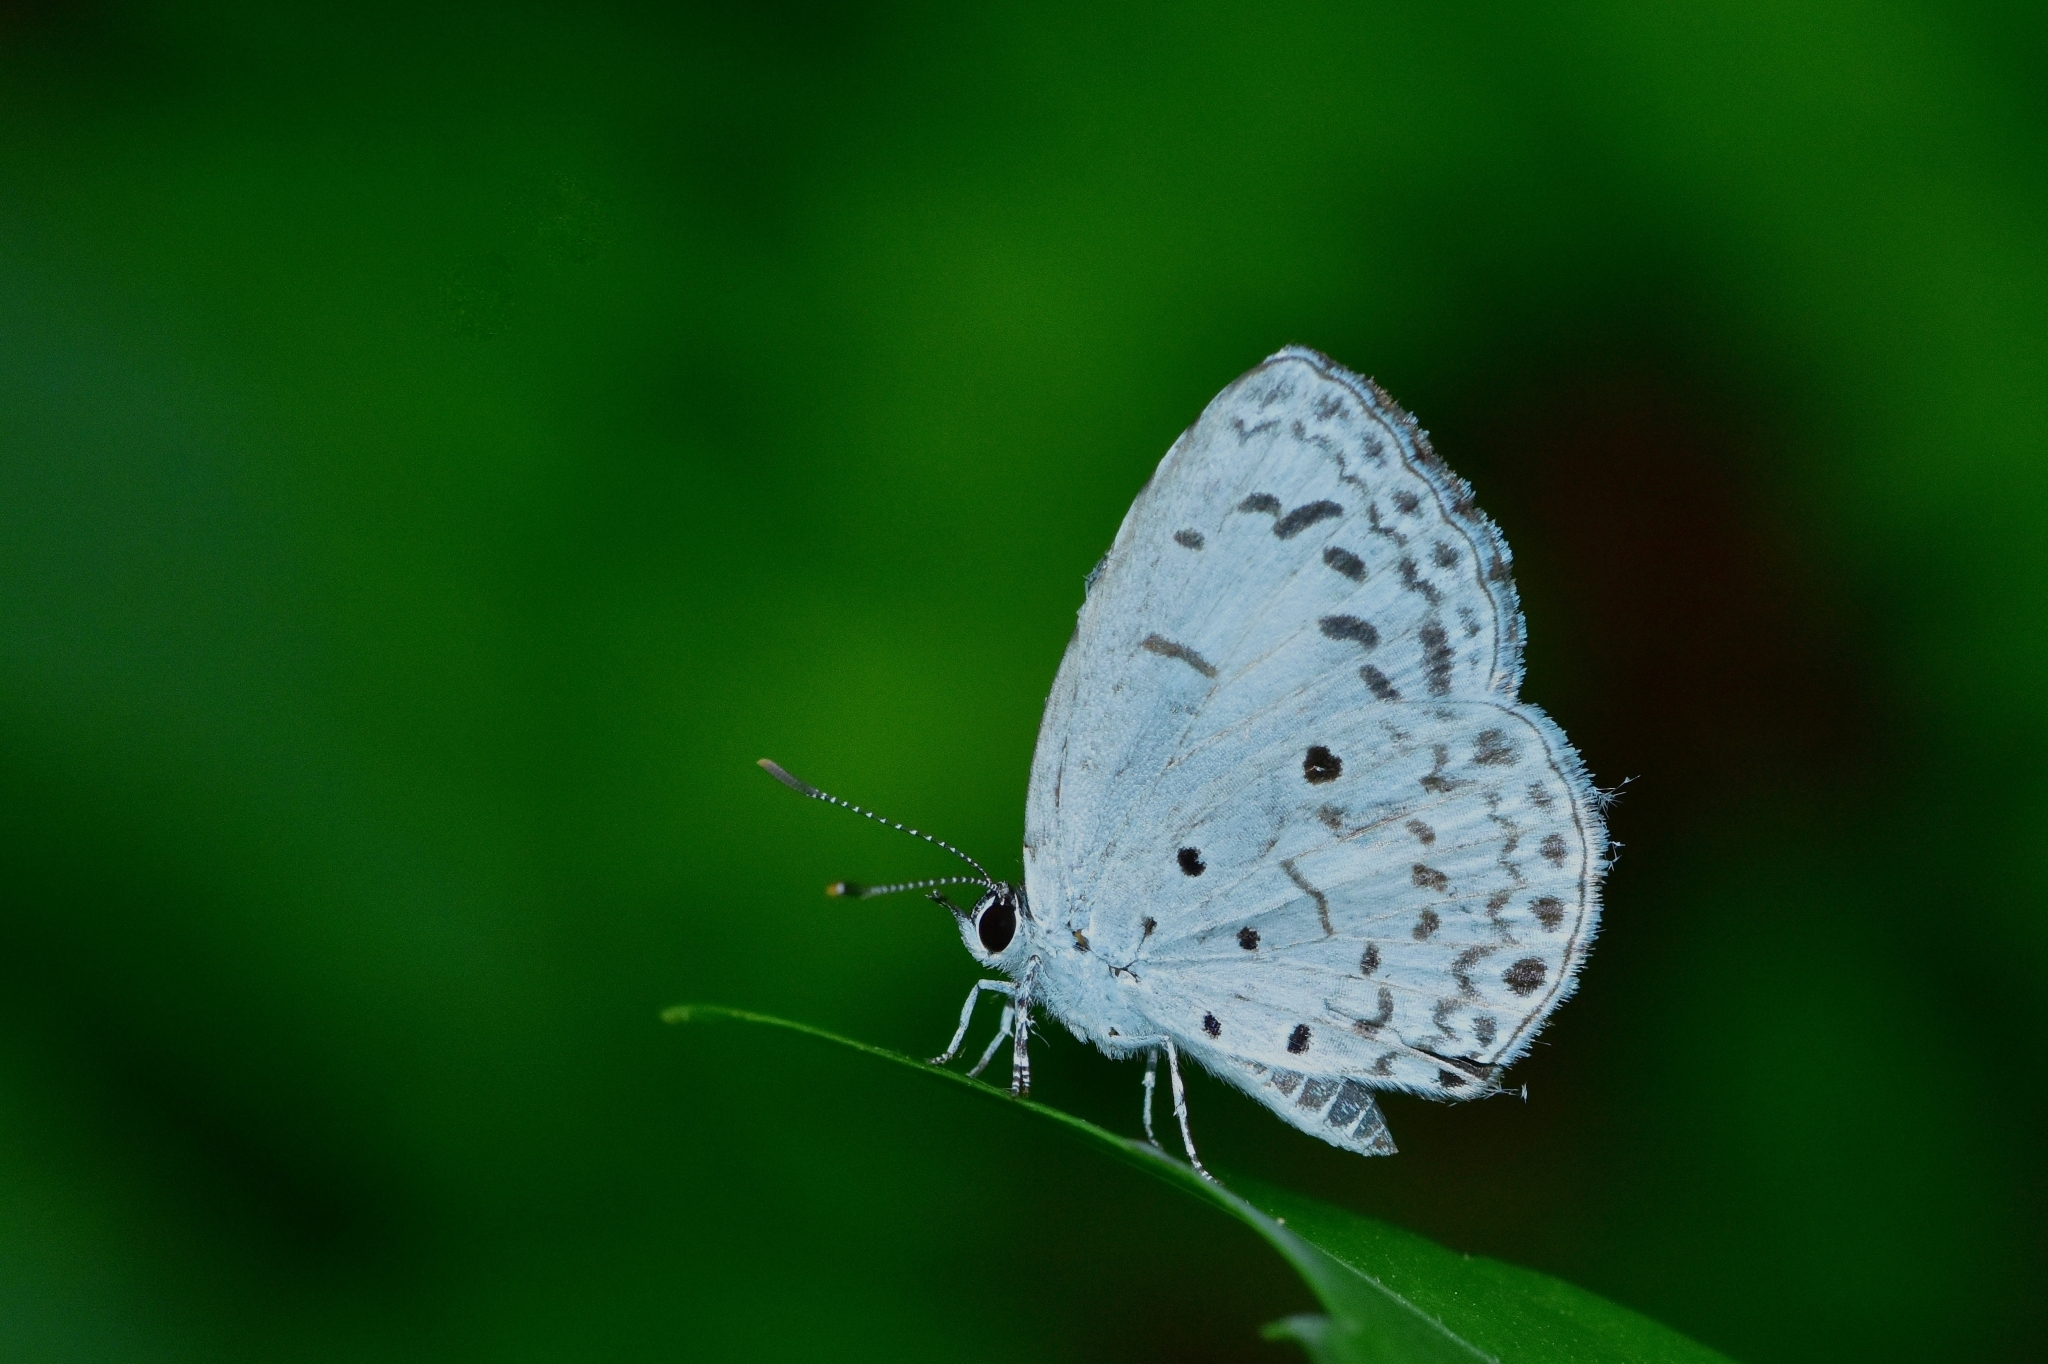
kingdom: Animalia
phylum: Arthropoda
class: Insecta
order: Lepidoptera
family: Lycaenidae
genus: Acytolepis
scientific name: Acytolepis puspa
